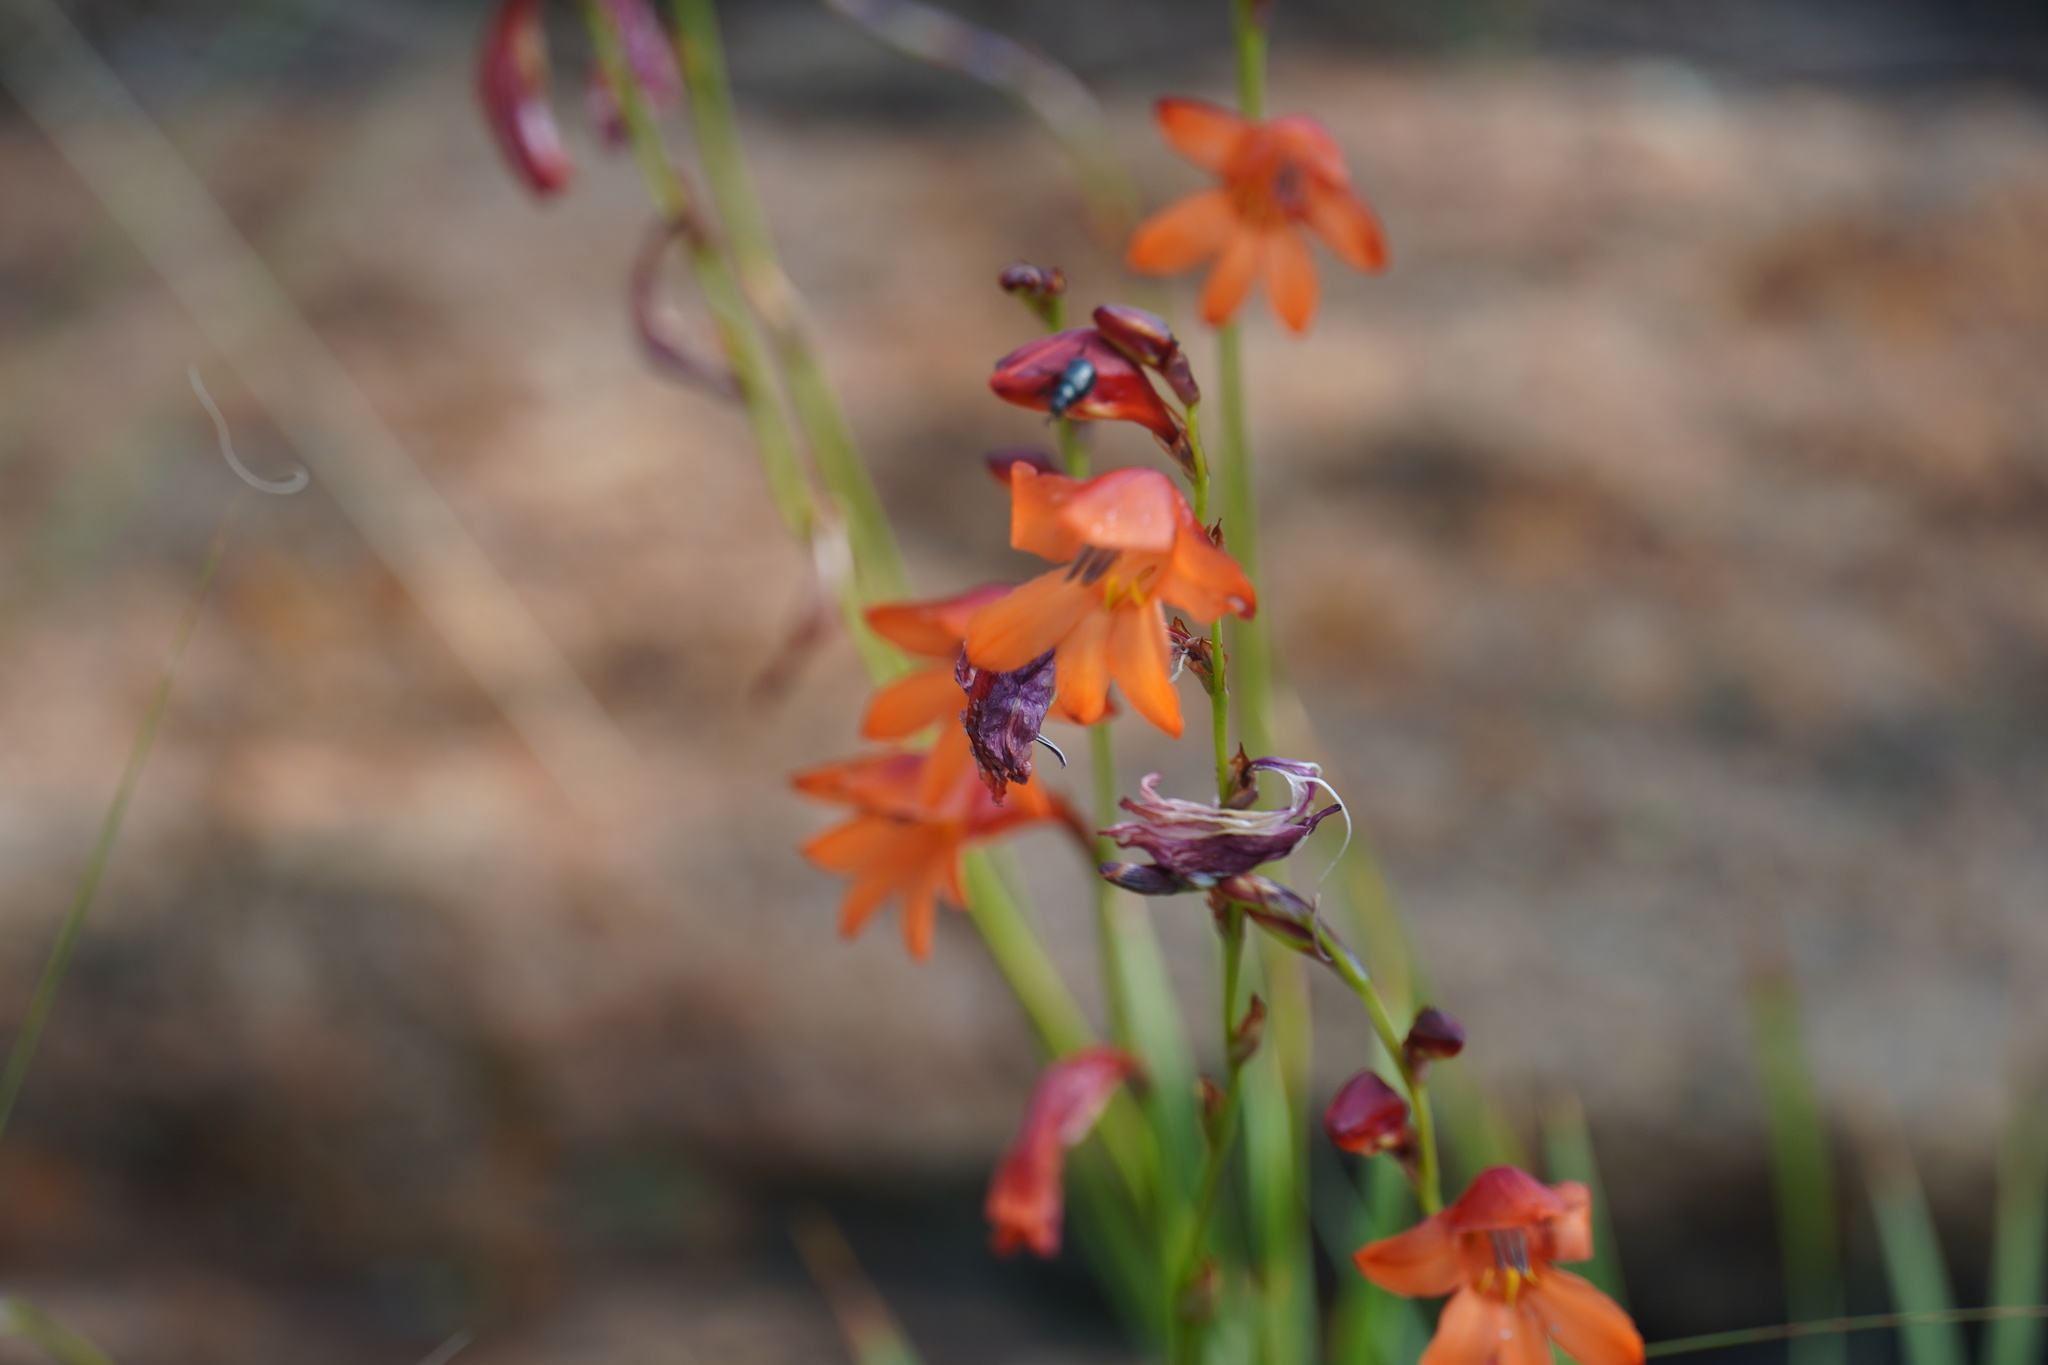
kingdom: Plantae
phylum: Tracheophyta
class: Liliopsida
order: Asparagales
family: Iridaceae
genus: Tritonia
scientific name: Tritonia nelsonii
